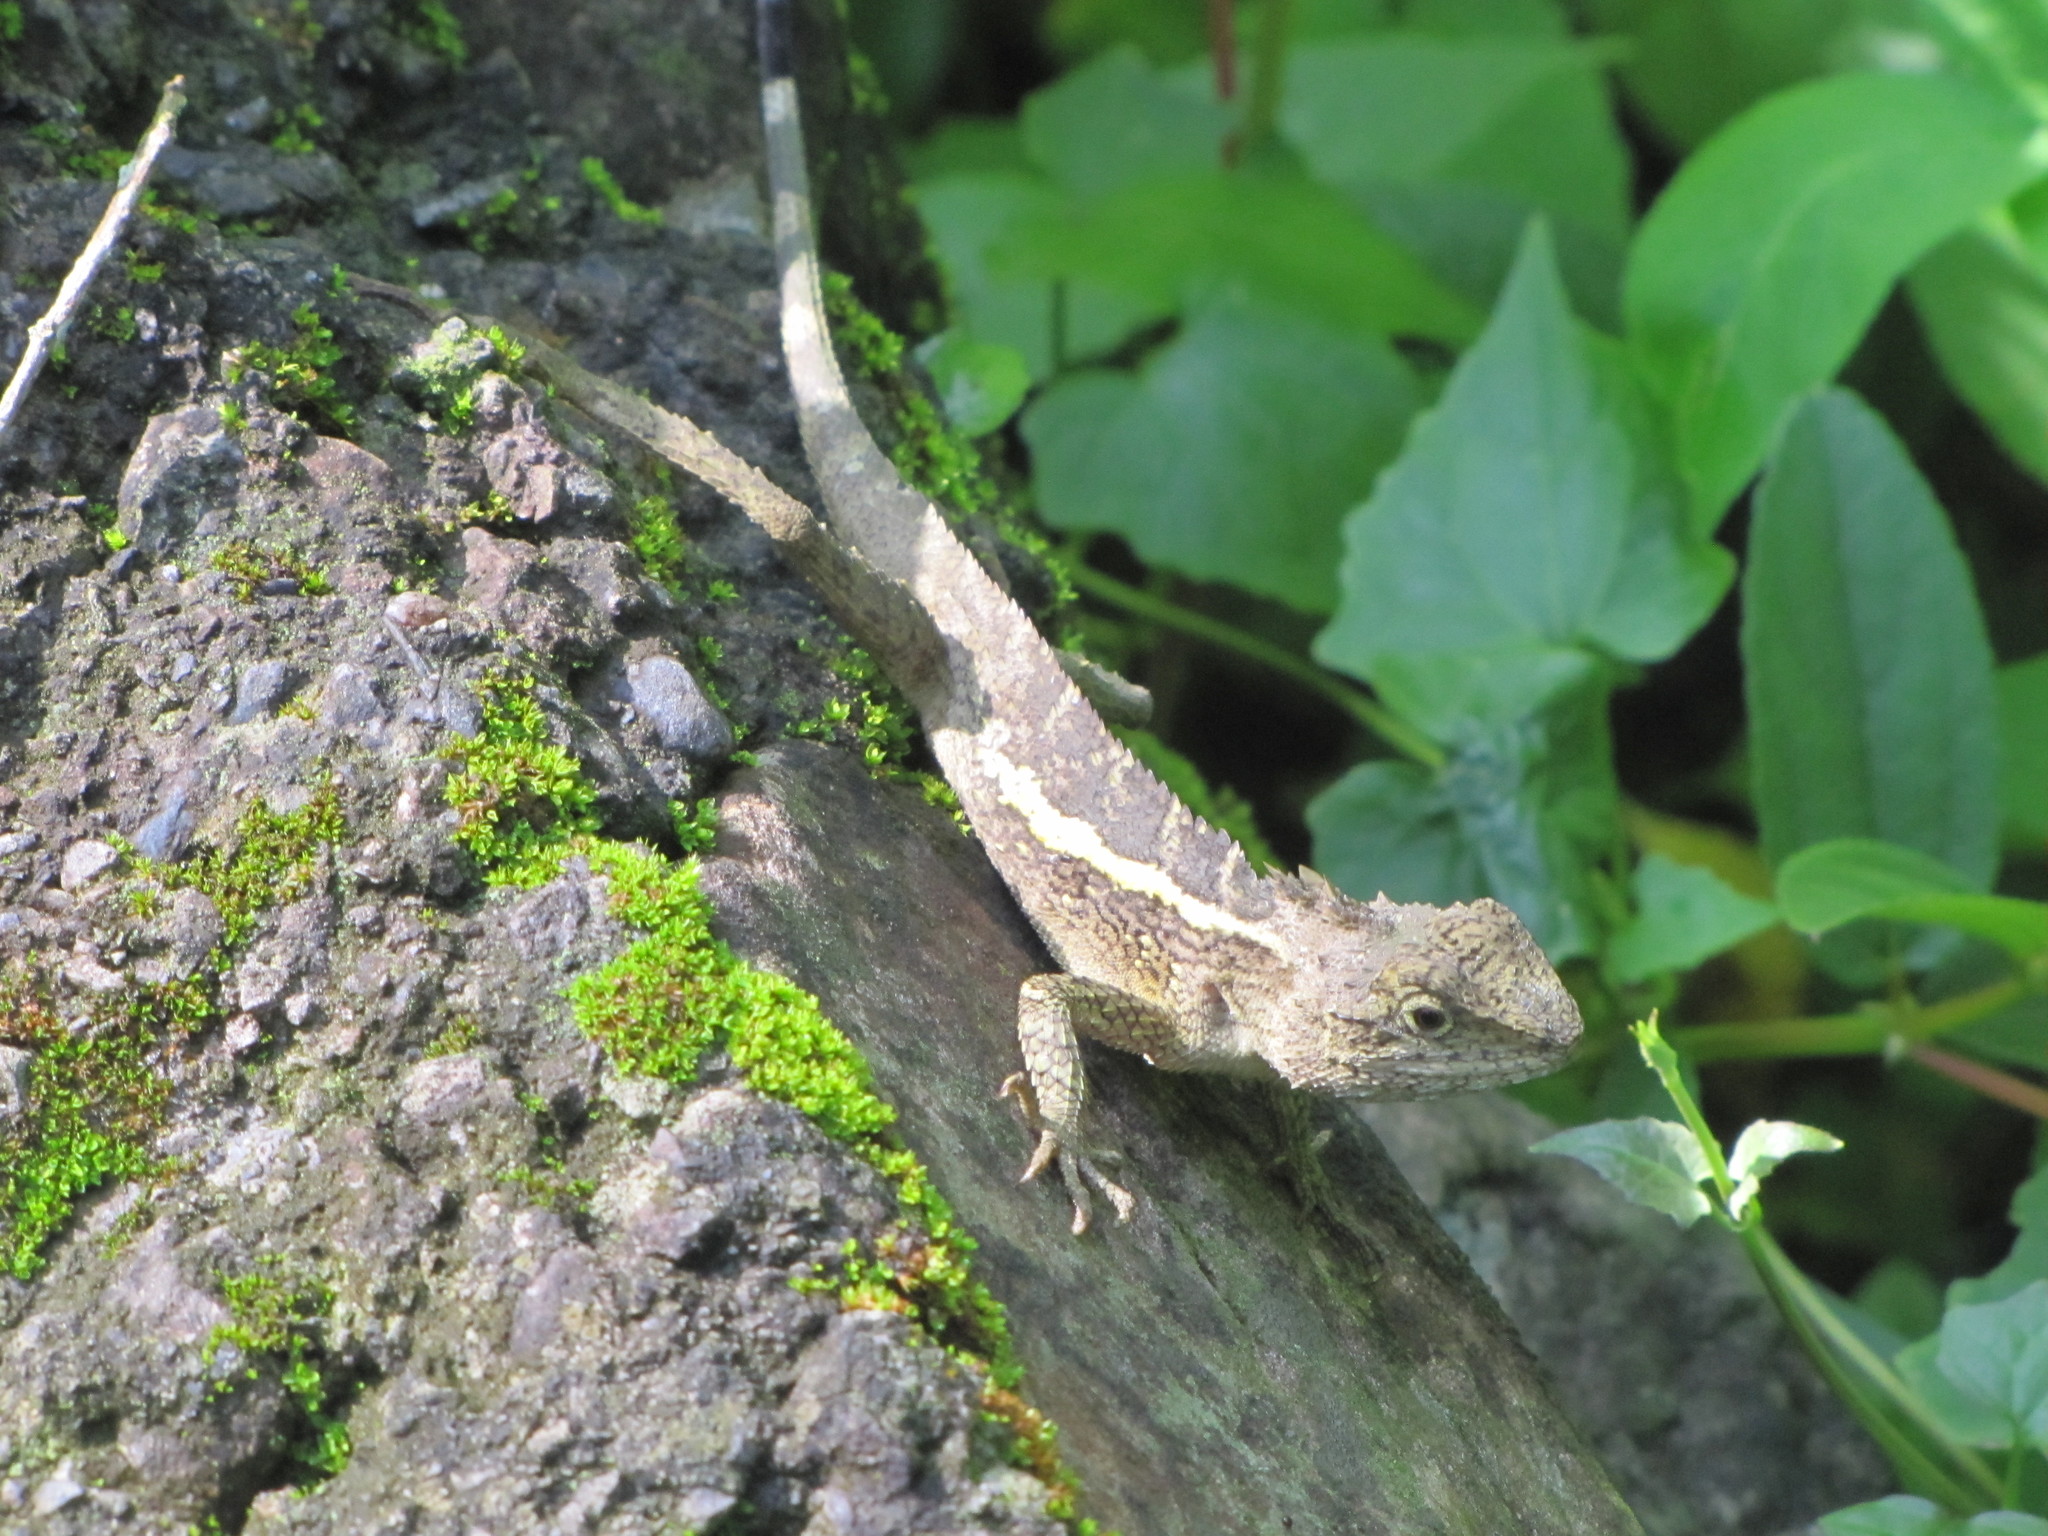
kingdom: Animalia
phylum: Chordata
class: Squamata
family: Agamidae
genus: Diploderma
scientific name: Diploderma swinhonis
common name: Taiwan japalure
